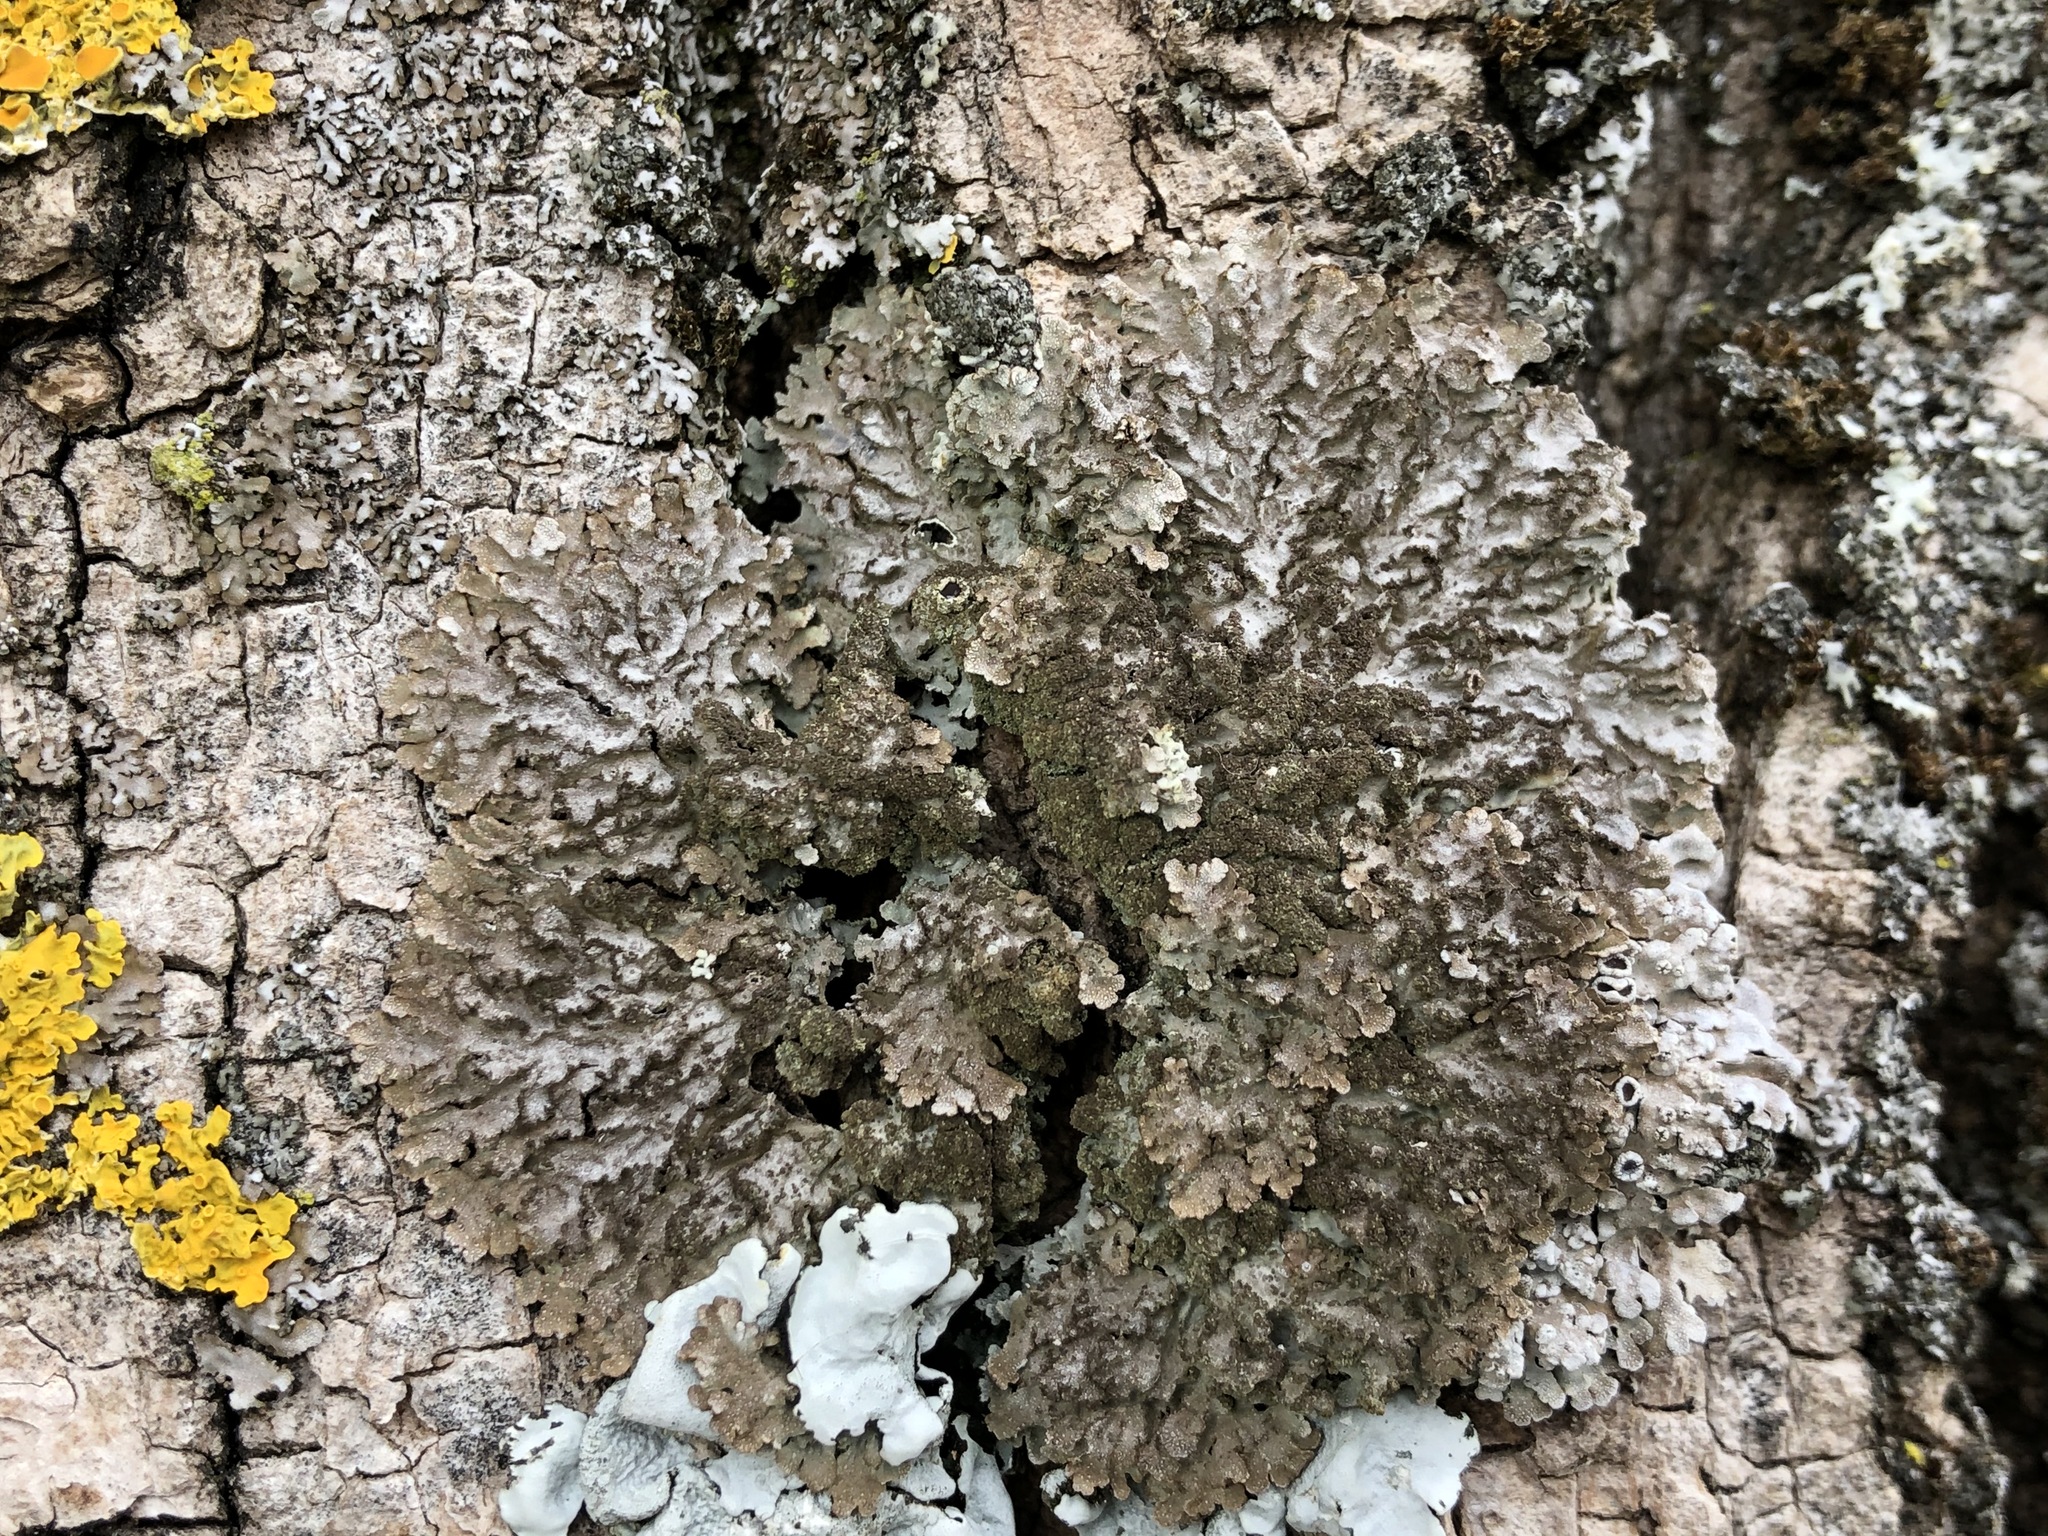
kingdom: Fungi
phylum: Ascomycota
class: Lecanoromycetes
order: Caliciales
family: Physciaceae
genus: Poeltonia
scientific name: Poeltonia grisea
